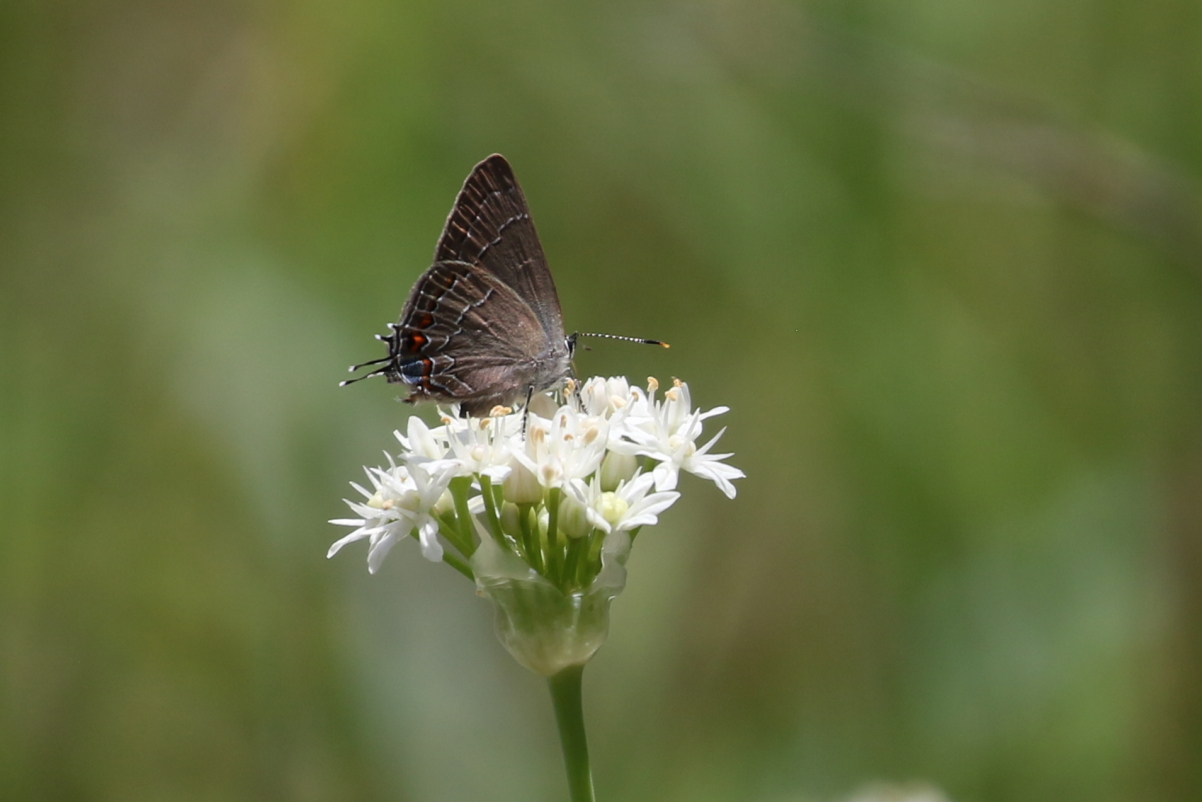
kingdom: Animalia
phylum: Arthropoda
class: Insecta
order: Lepidoptera
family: Lycaenidae
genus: Fixsenia
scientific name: Fixsenia favonius
